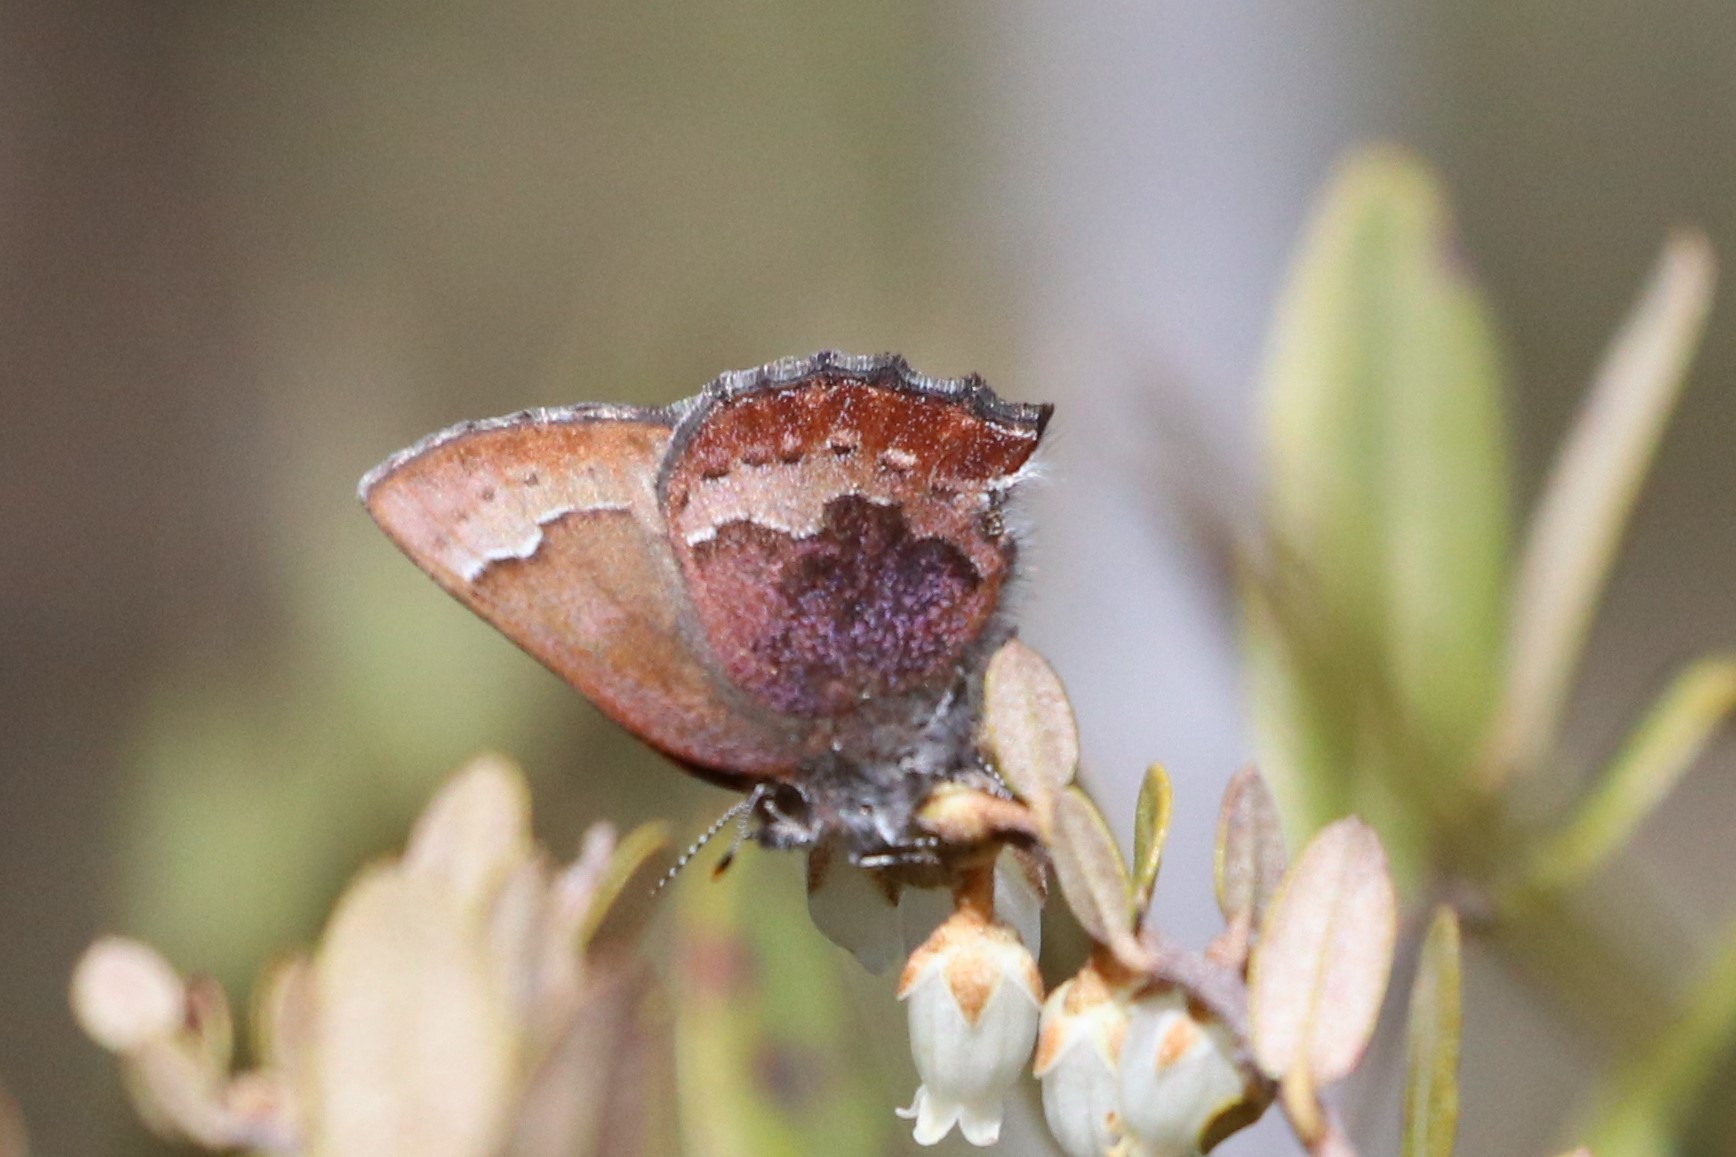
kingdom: Animalia
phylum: Arthropoda
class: Insecta
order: Lepidoptera
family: Lycaenidae
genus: Incisalia
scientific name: Incisalia irioides
